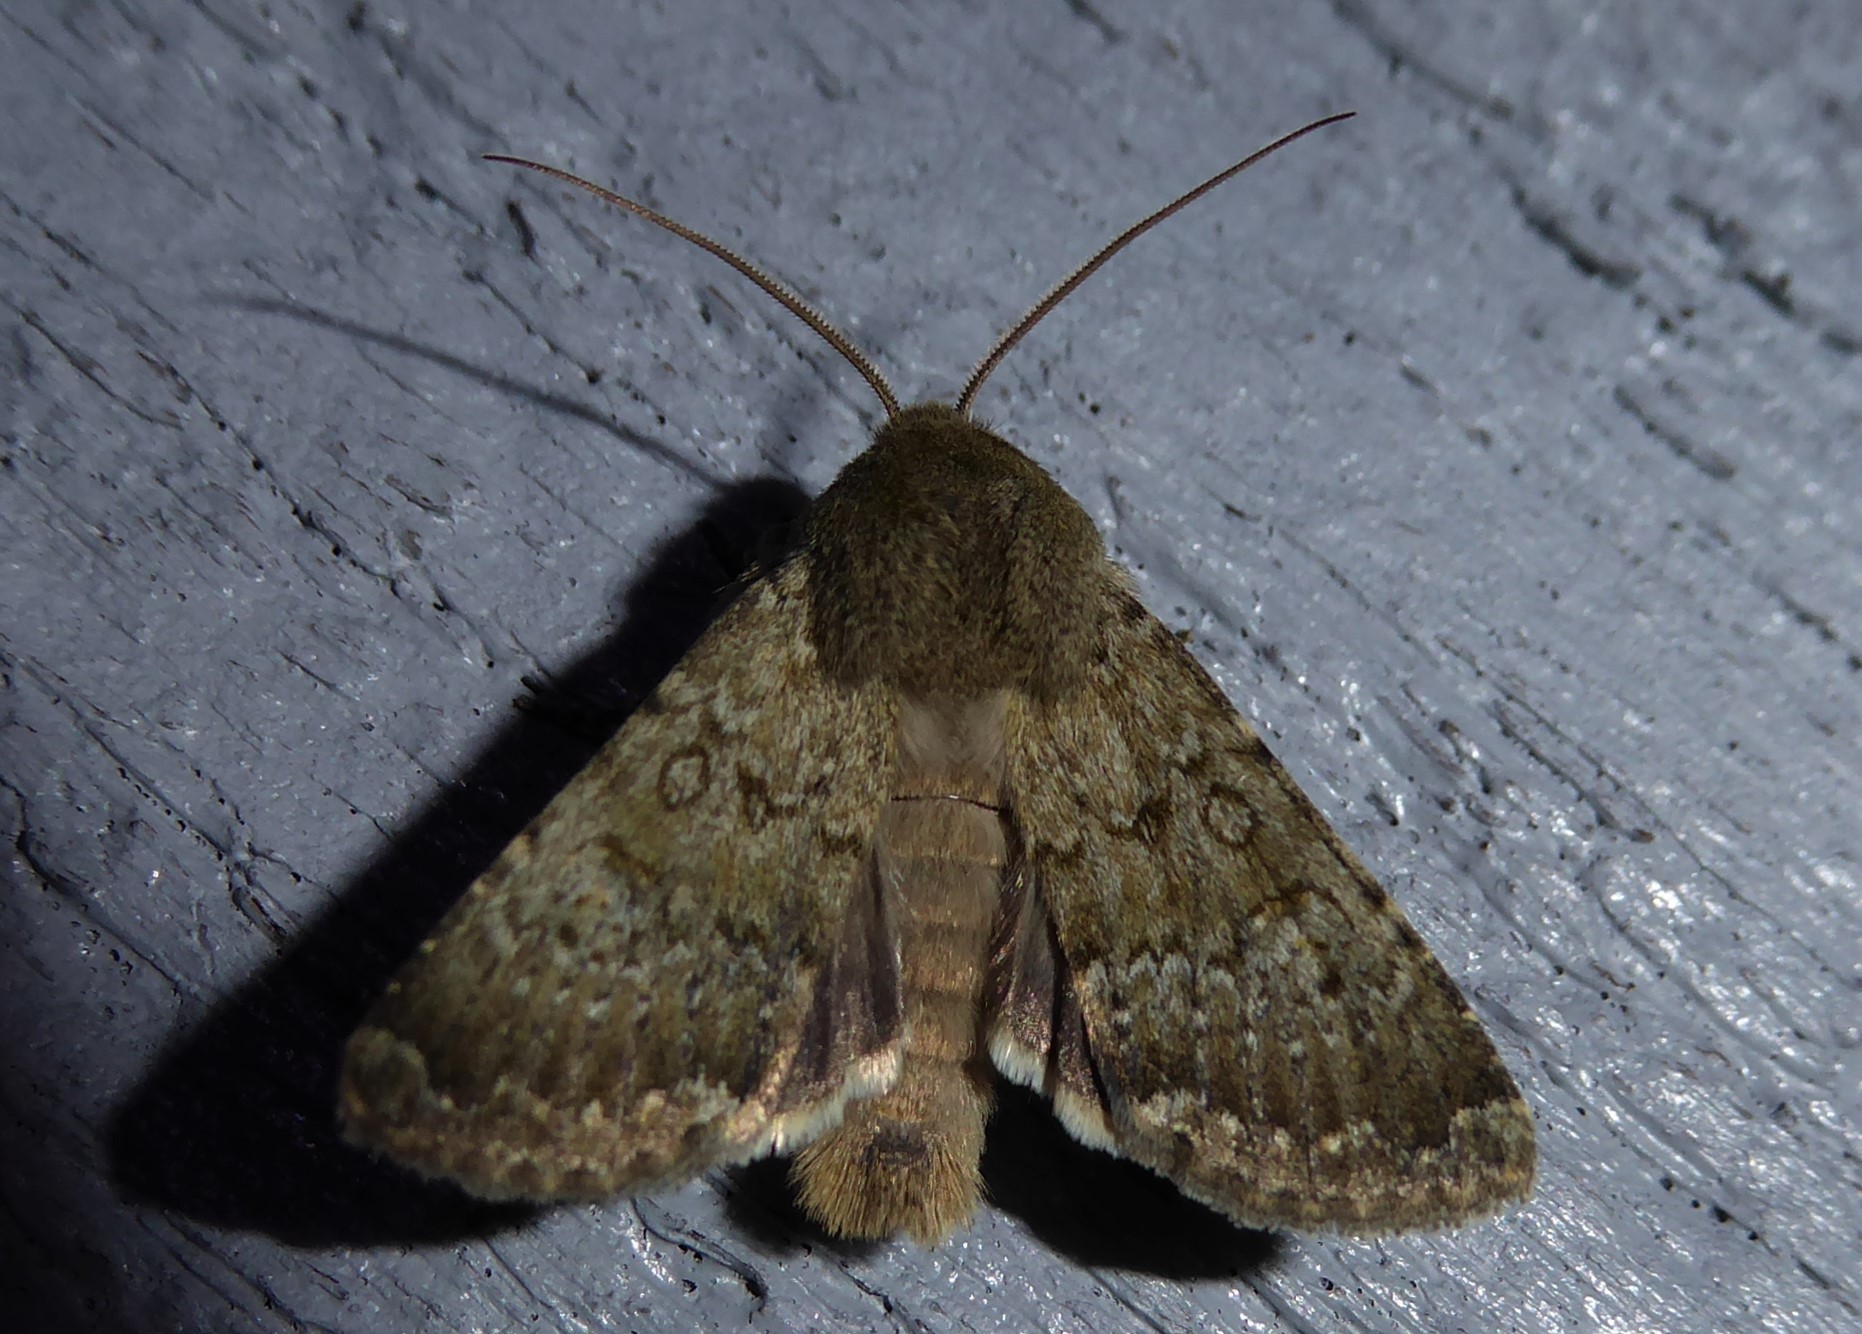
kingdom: Animalia
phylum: Arthropoda
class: Insecta
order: Lepidoptera
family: Noctuidae
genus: Ichneutica
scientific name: Ichneutica moderata
